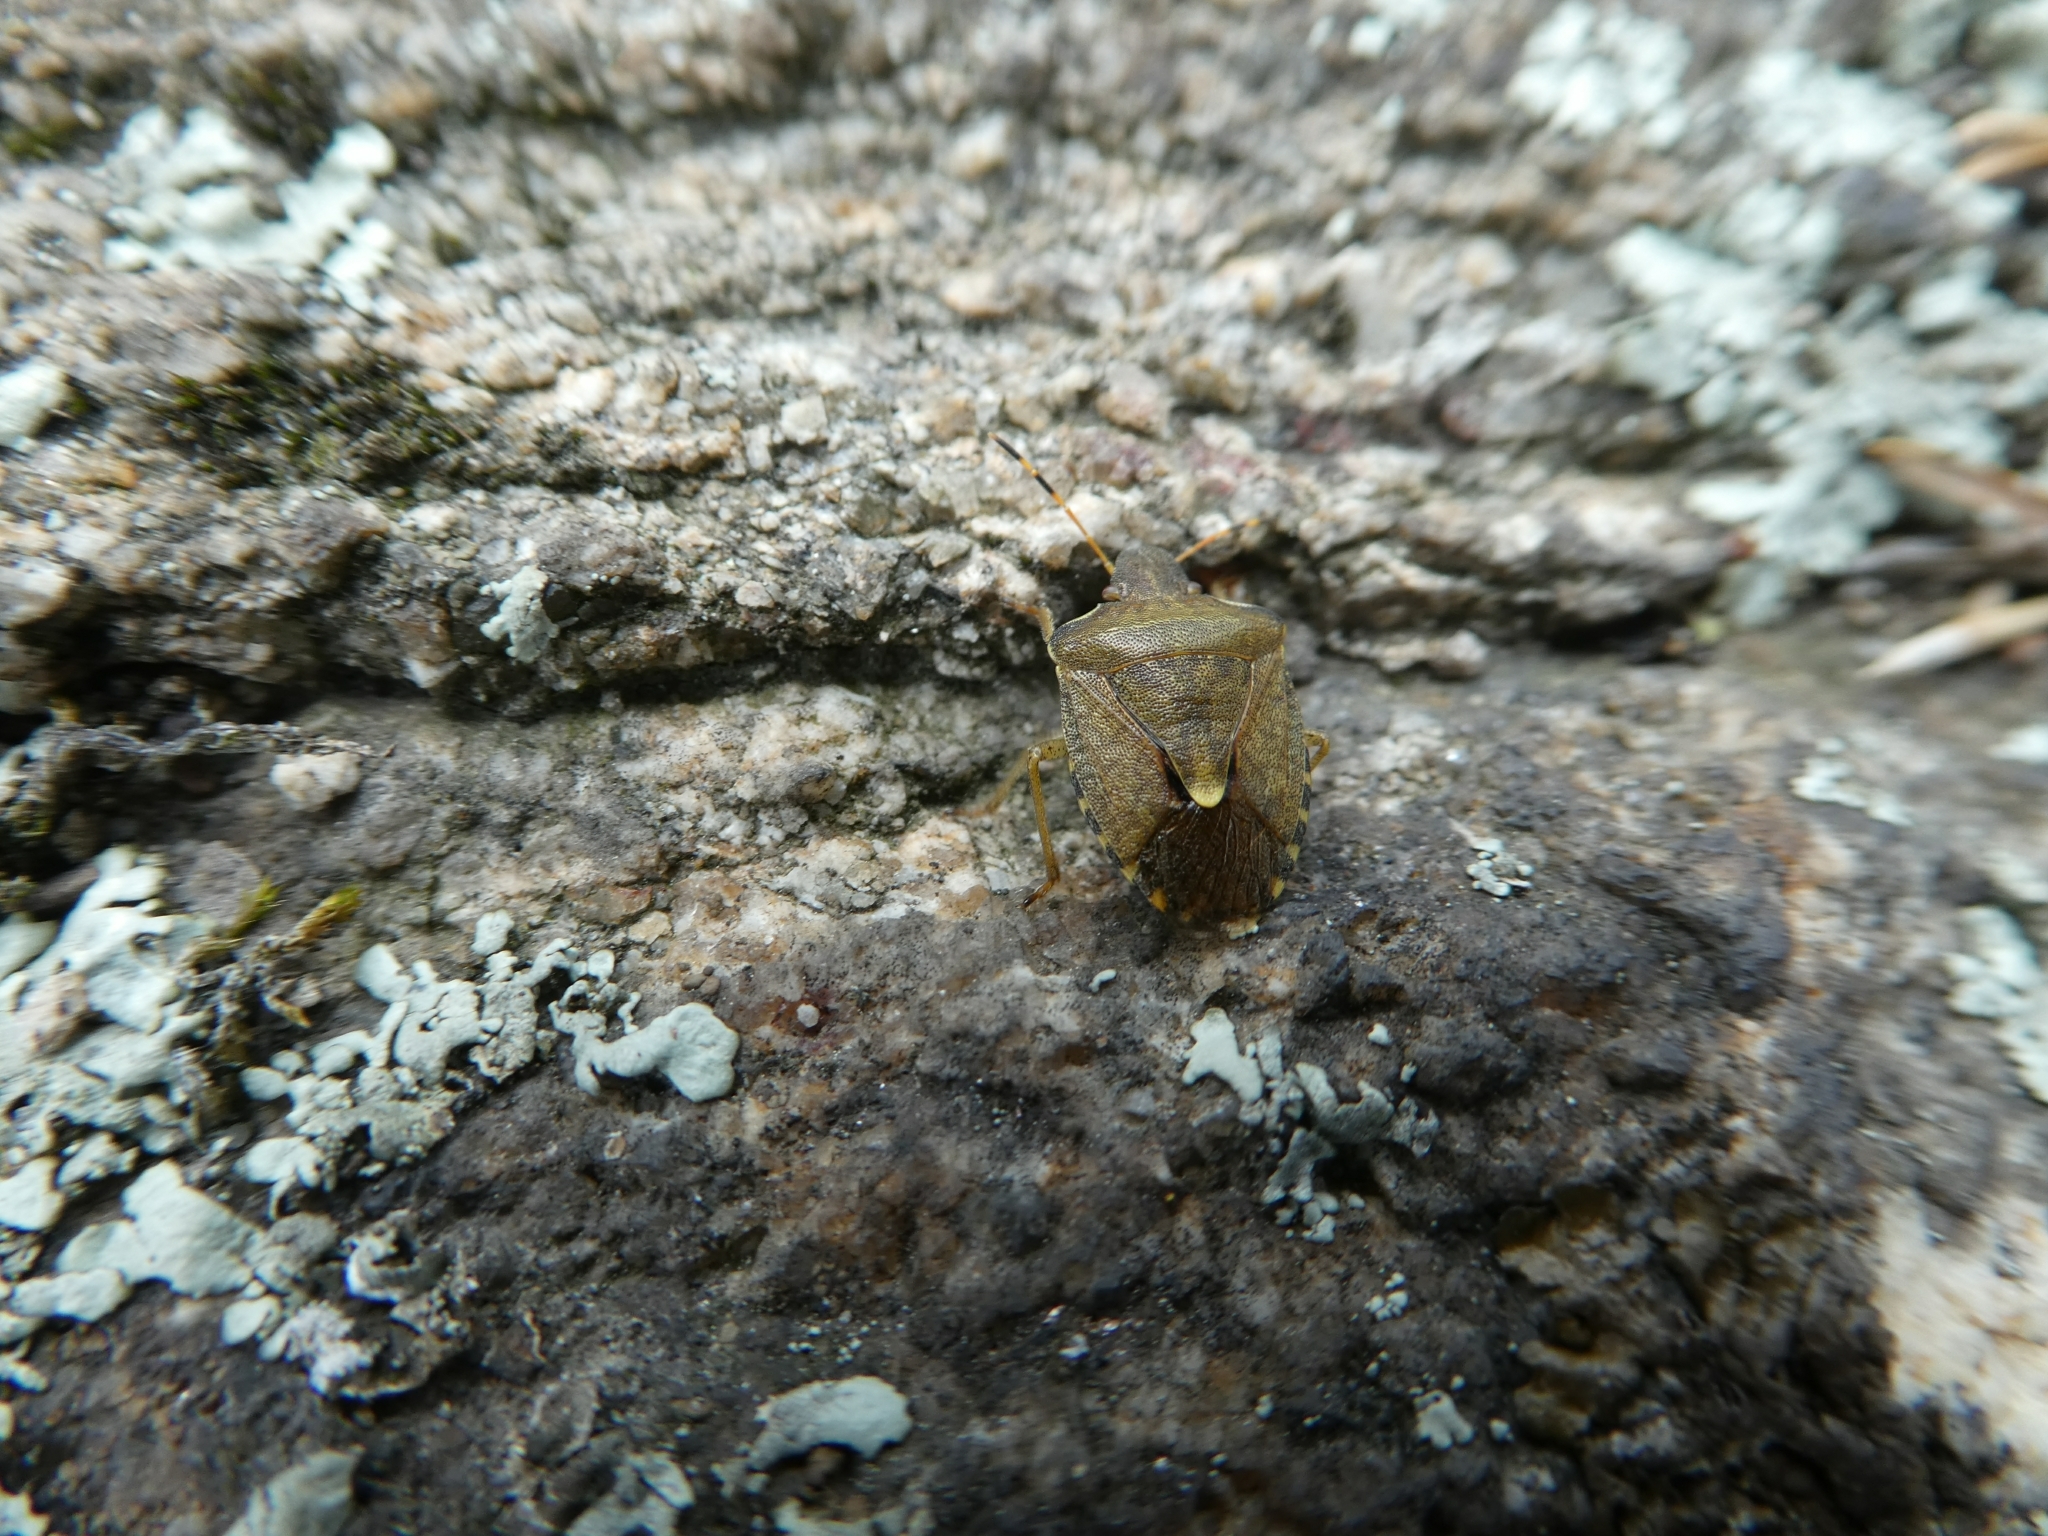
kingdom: Animalia
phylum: Arthropoda
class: Insecta
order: Hemiptera
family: Pentatomidae
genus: Holcostethus
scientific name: Holcostethus strictus
